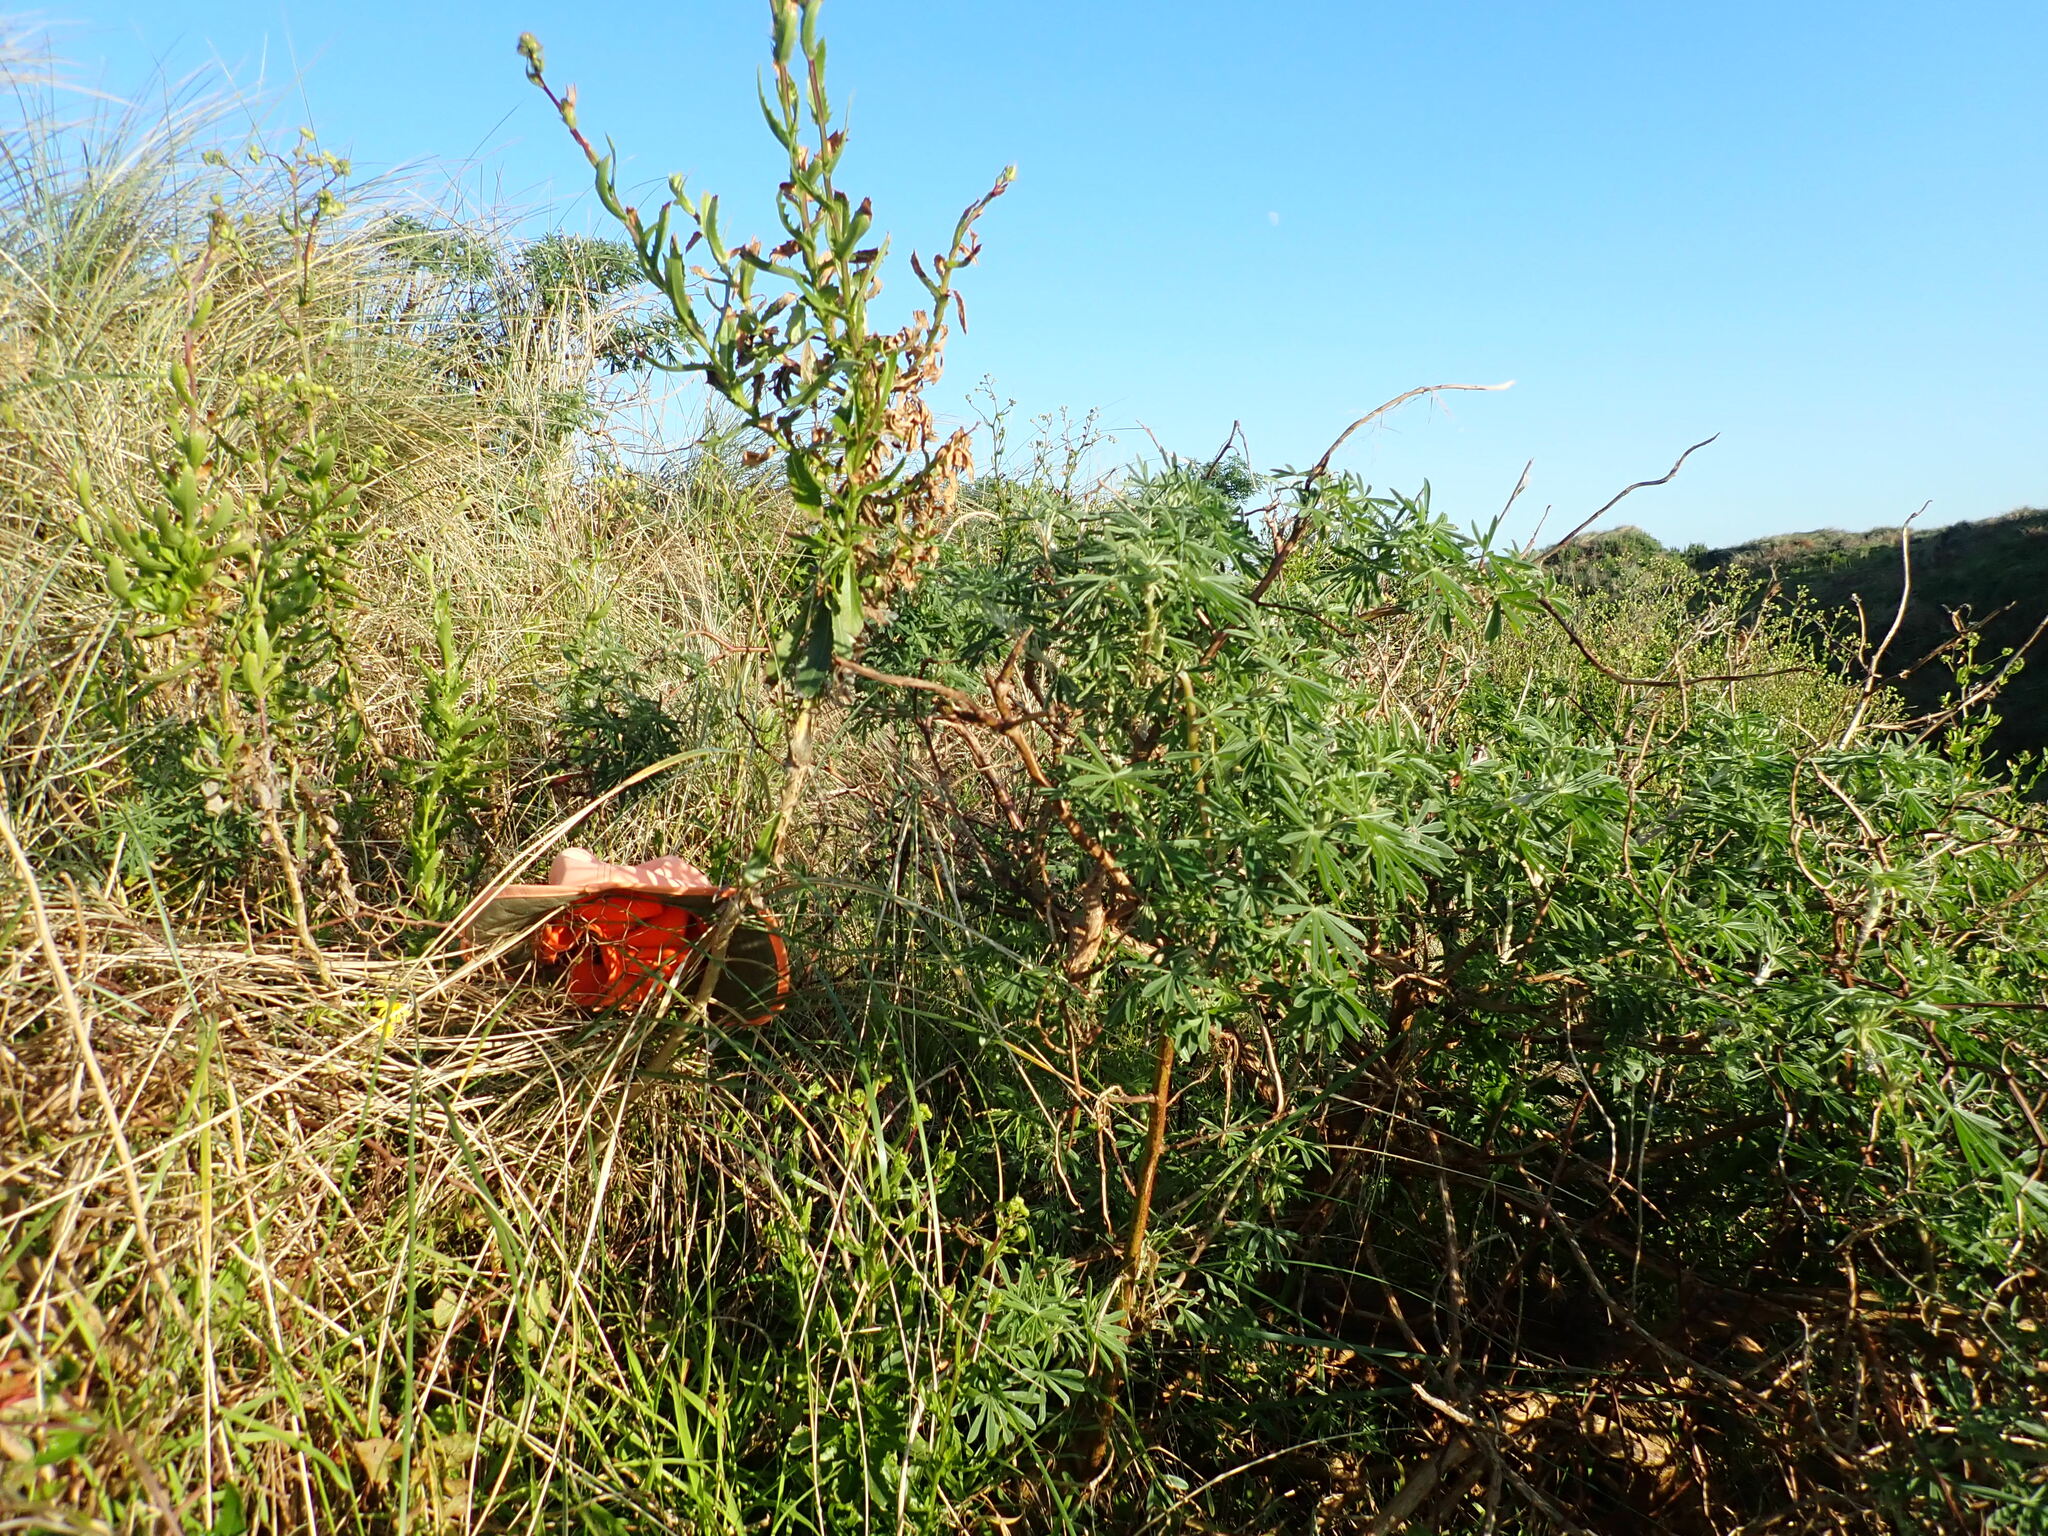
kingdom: Plantae
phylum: Tracheophyta
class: Magnoliopsida
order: Asterales
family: Asteraceae
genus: Senecio
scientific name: Senecio skirrhodon
